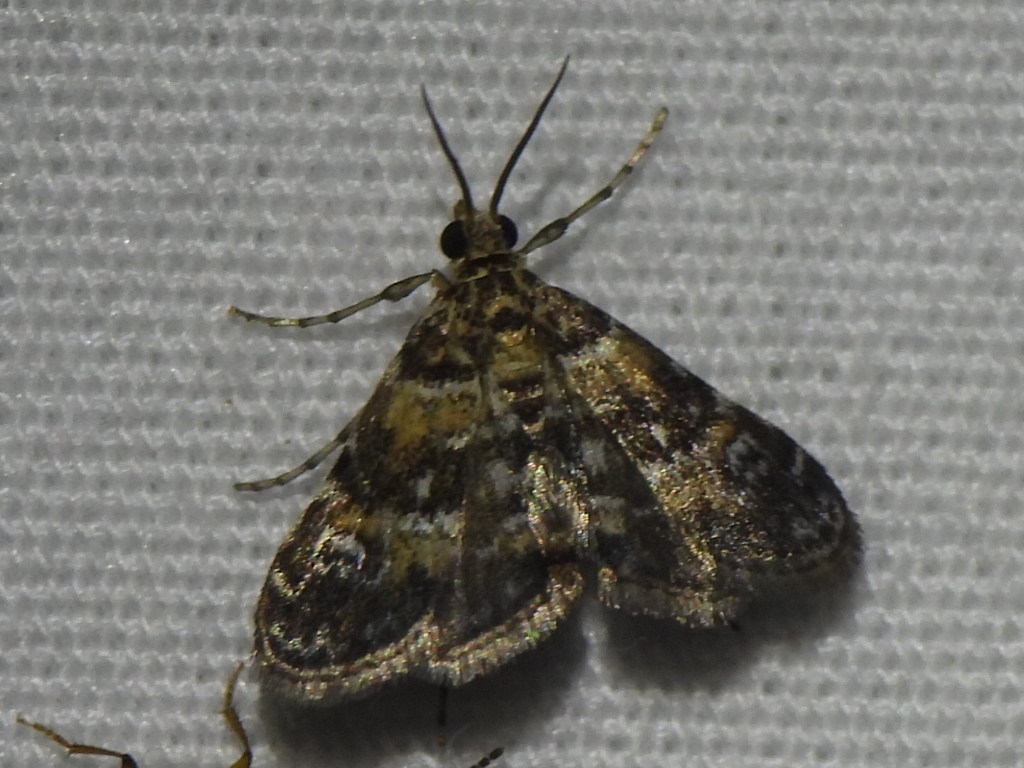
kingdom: Animalia
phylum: Arthropoda
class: Insecta
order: Lepidoptera
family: Crambidae
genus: Elophila
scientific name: Elophila obliteralis
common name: Waterlily leafcutter moth
